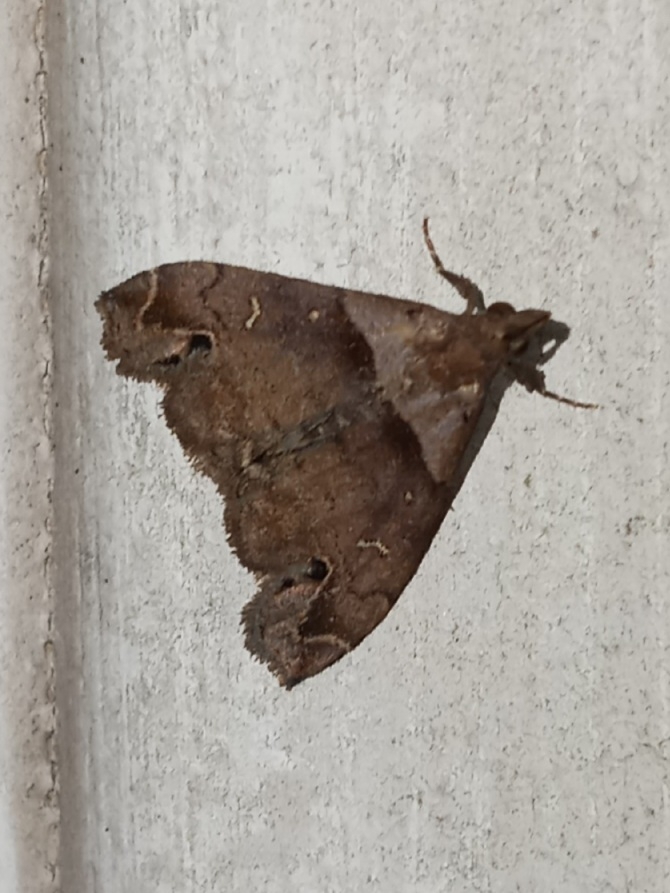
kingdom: Animalia
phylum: Arthropoda
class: Insecta
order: Lepidoptera
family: Erebidae
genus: Lascoria
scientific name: Lascoria ambigualis
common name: Ambiguous moth
